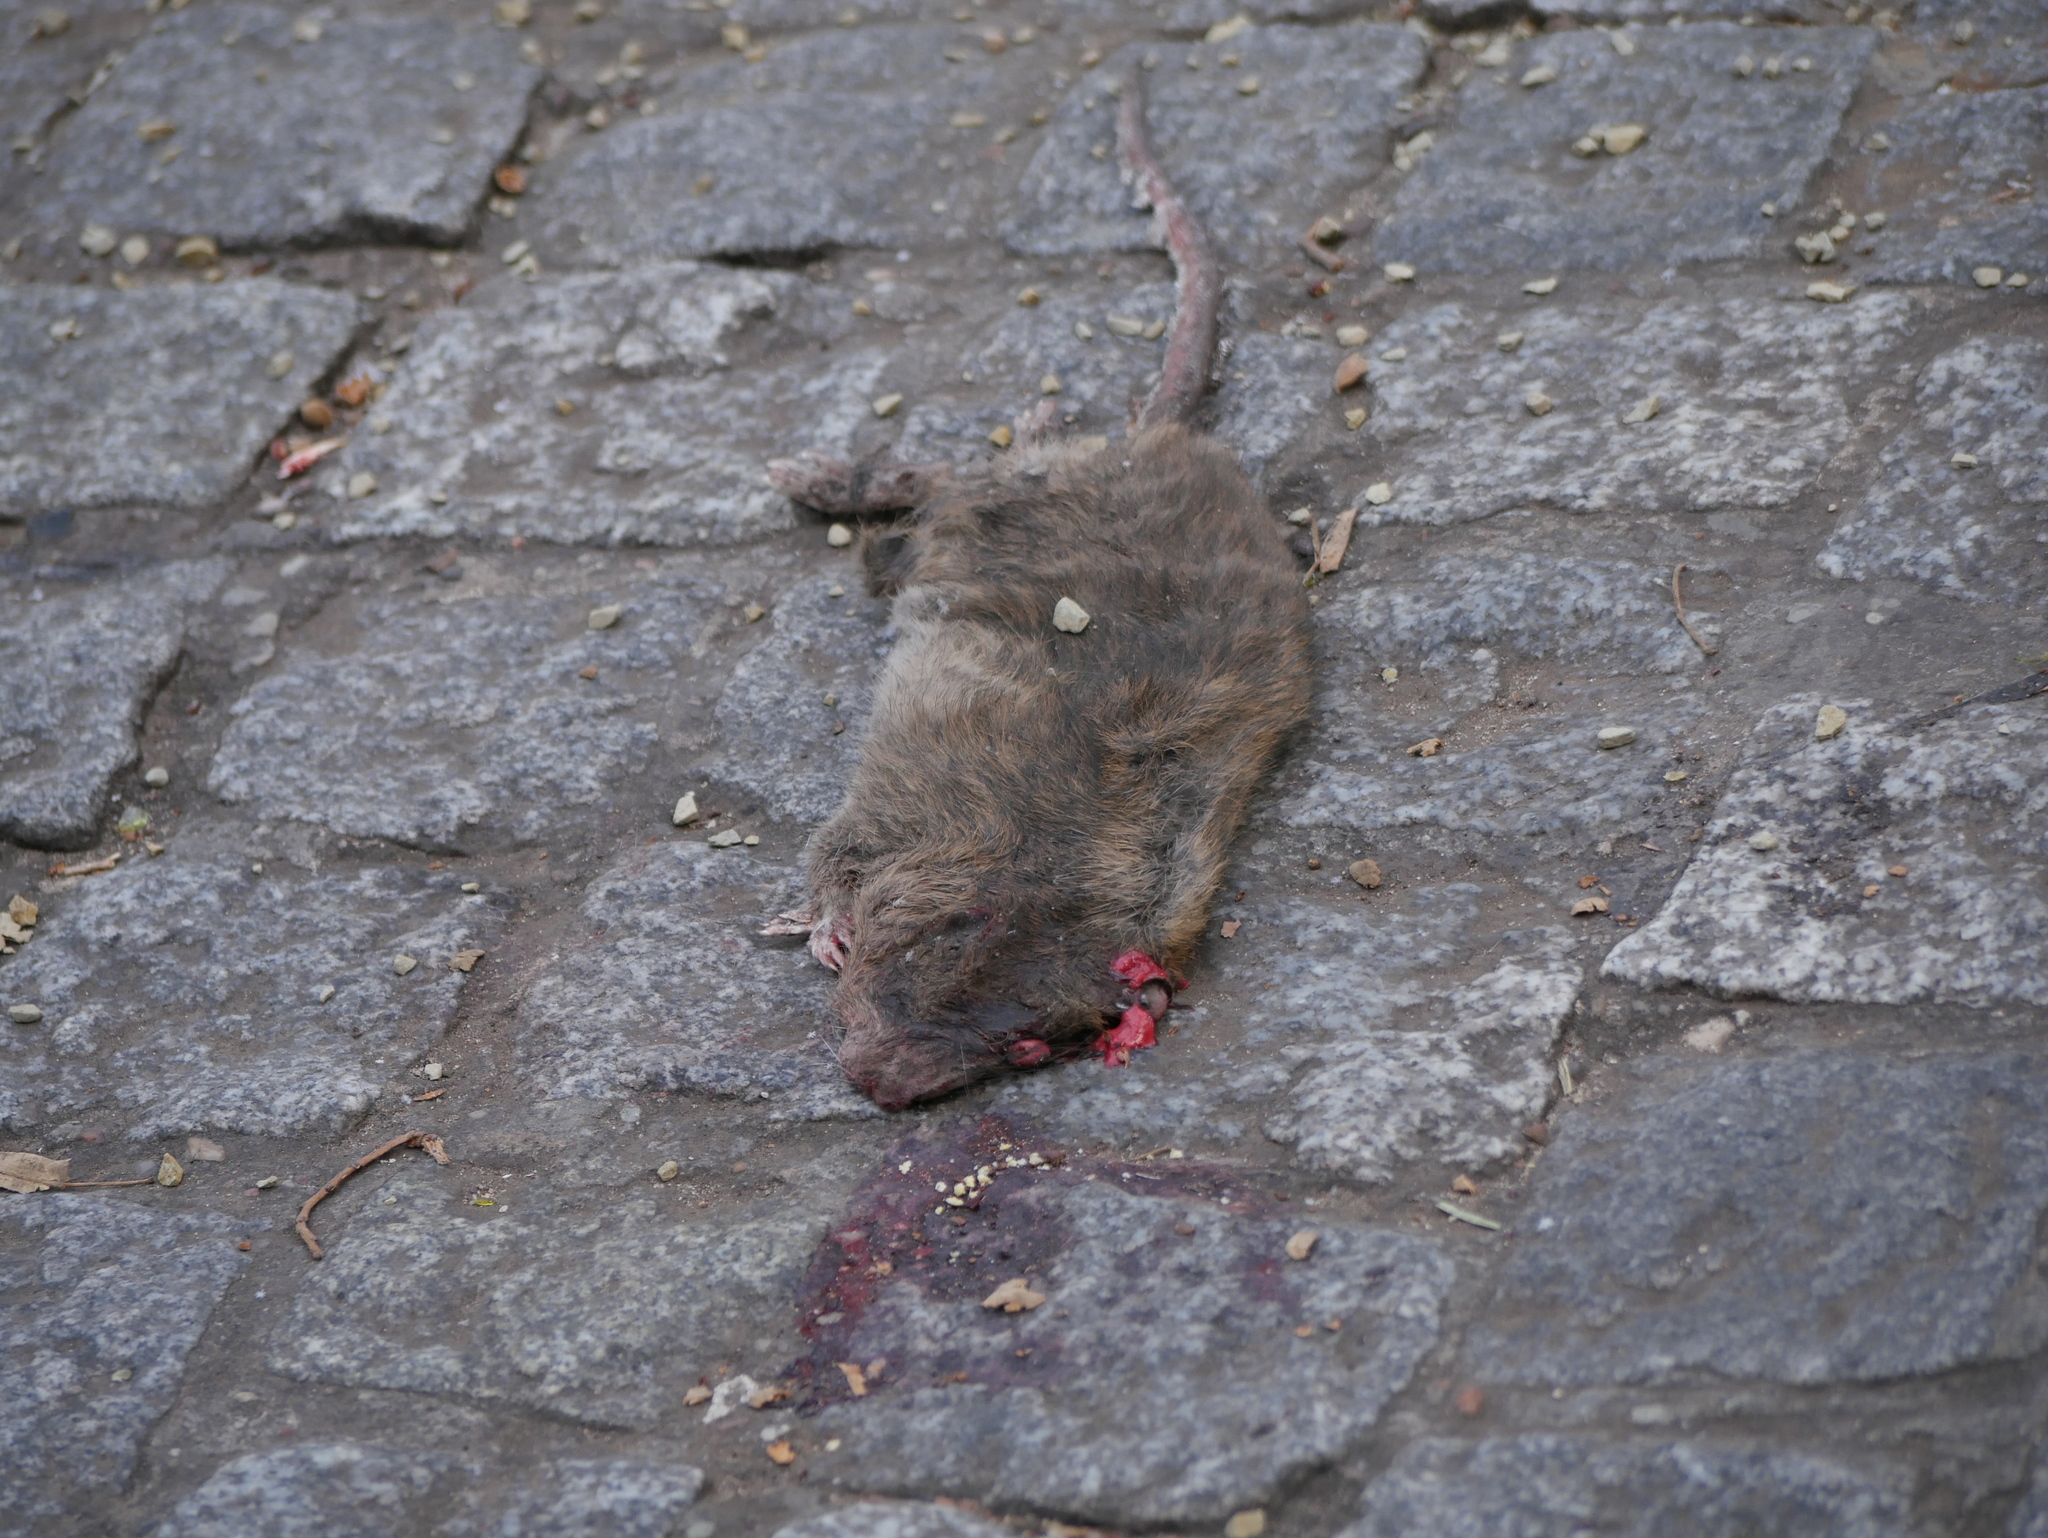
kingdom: Animalia
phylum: Chordata
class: Mammalia
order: Rodentia
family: Muridae
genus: Rattus
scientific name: Rattus norvegicus
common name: Brown rat
